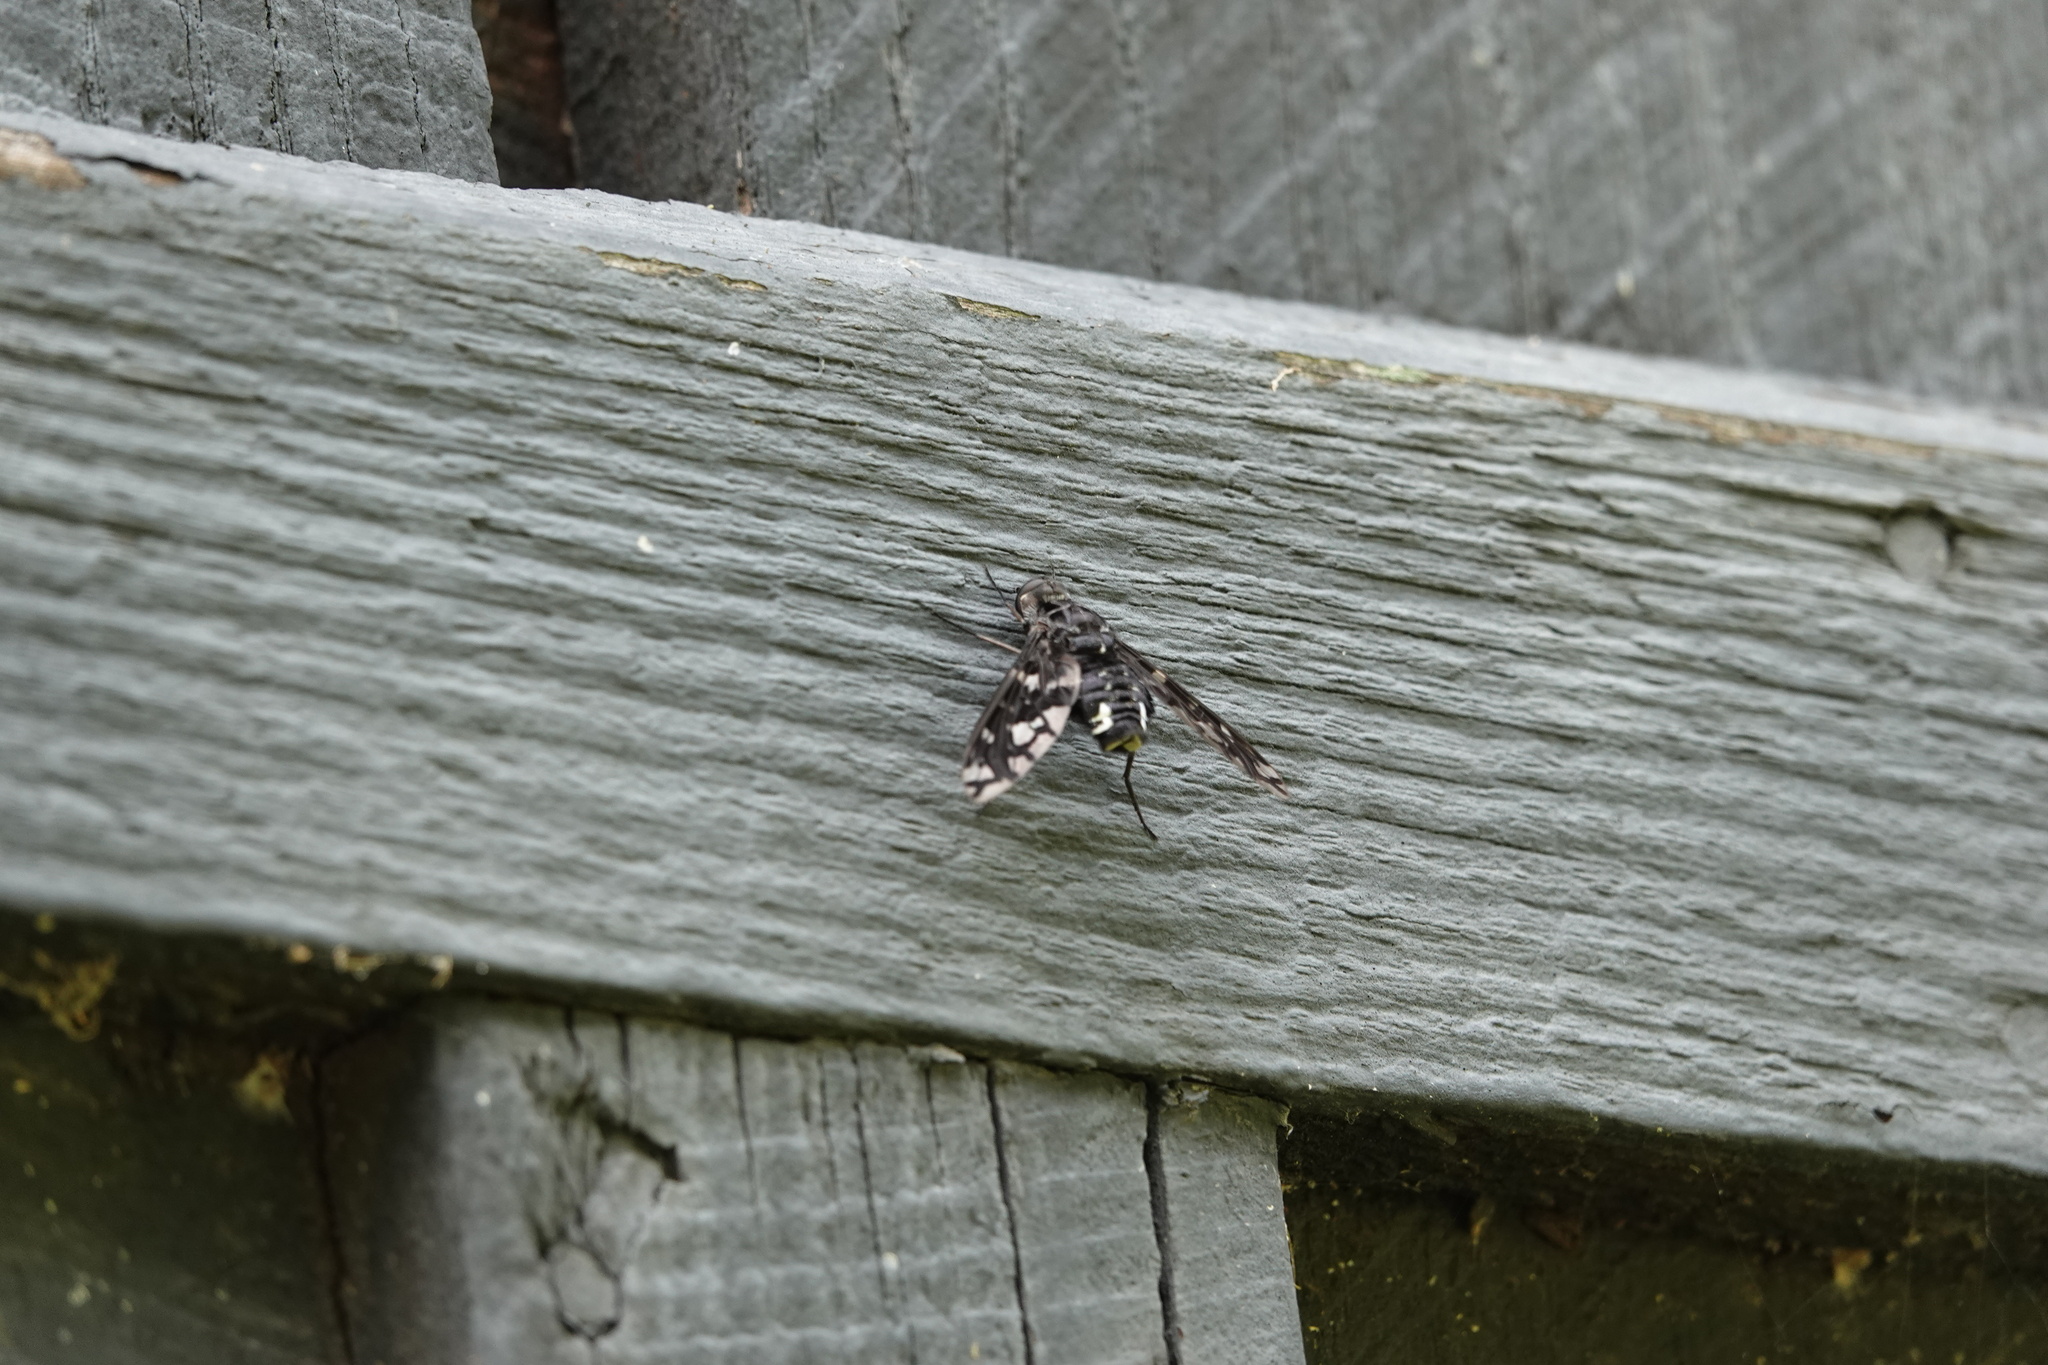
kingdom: Animalia
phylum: Arthropoda
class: Insecta
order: Diptera
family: Bombyliidae
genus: Xenox
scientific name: Xenox tigrinus
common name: Tiger bee fly
